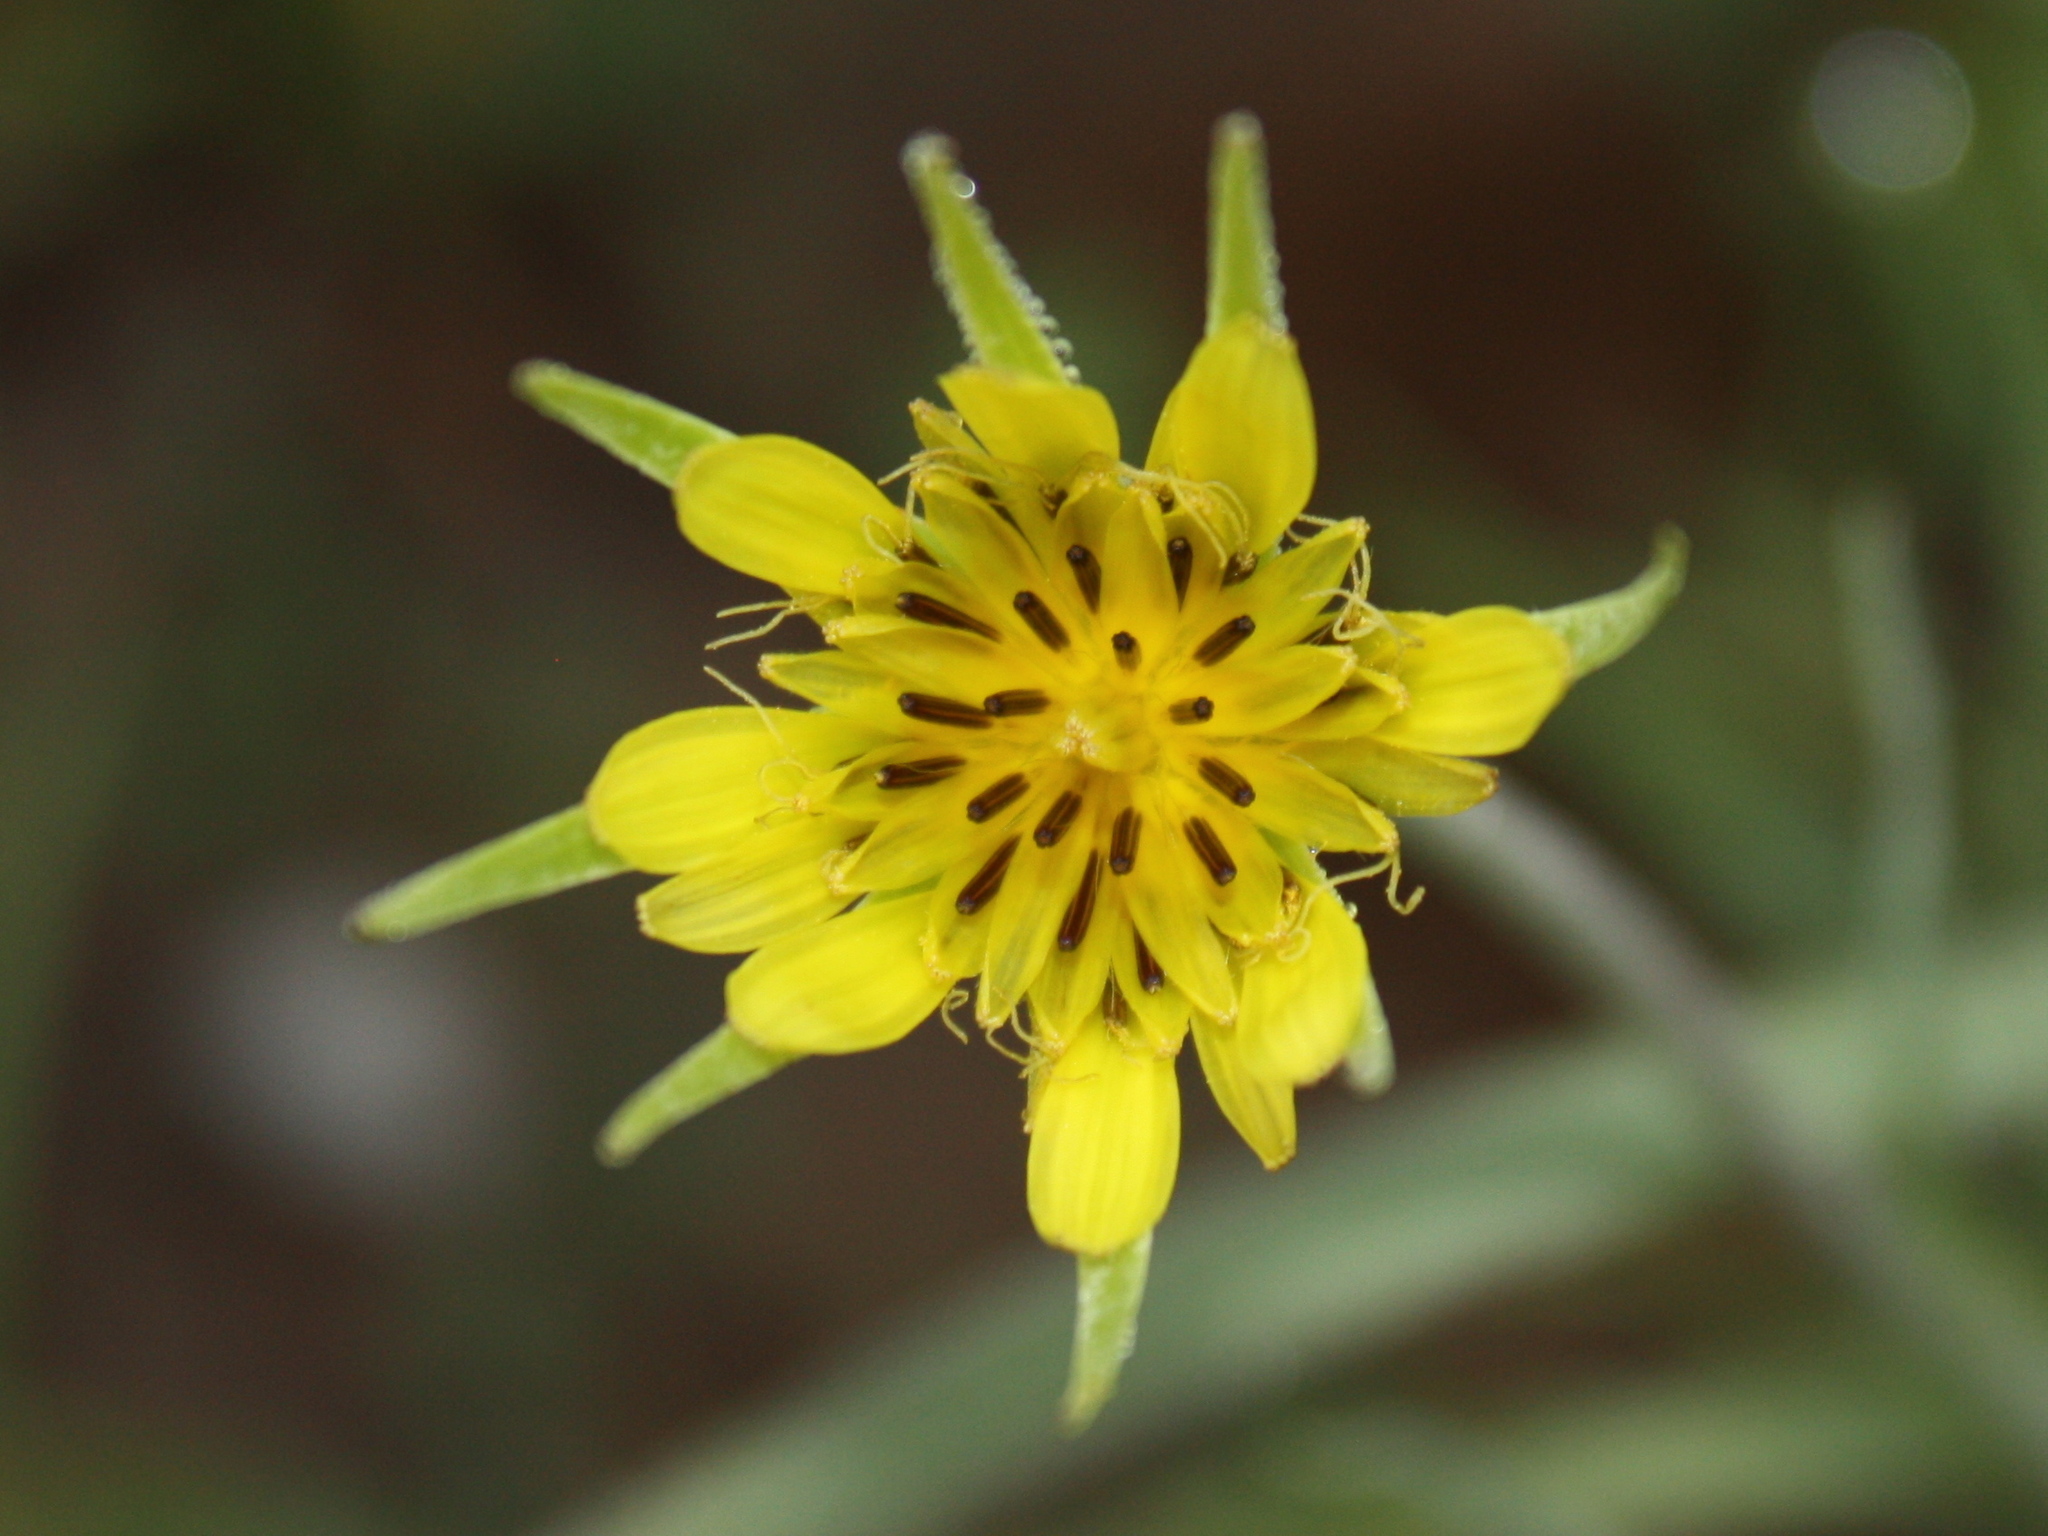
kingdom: Plantae
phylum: Tracheophyta
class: Magnoliopsida
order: Asterales
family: Asteraceae
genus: Tragopogon
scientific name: Tragopogon dubius
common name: Yellow salsify
